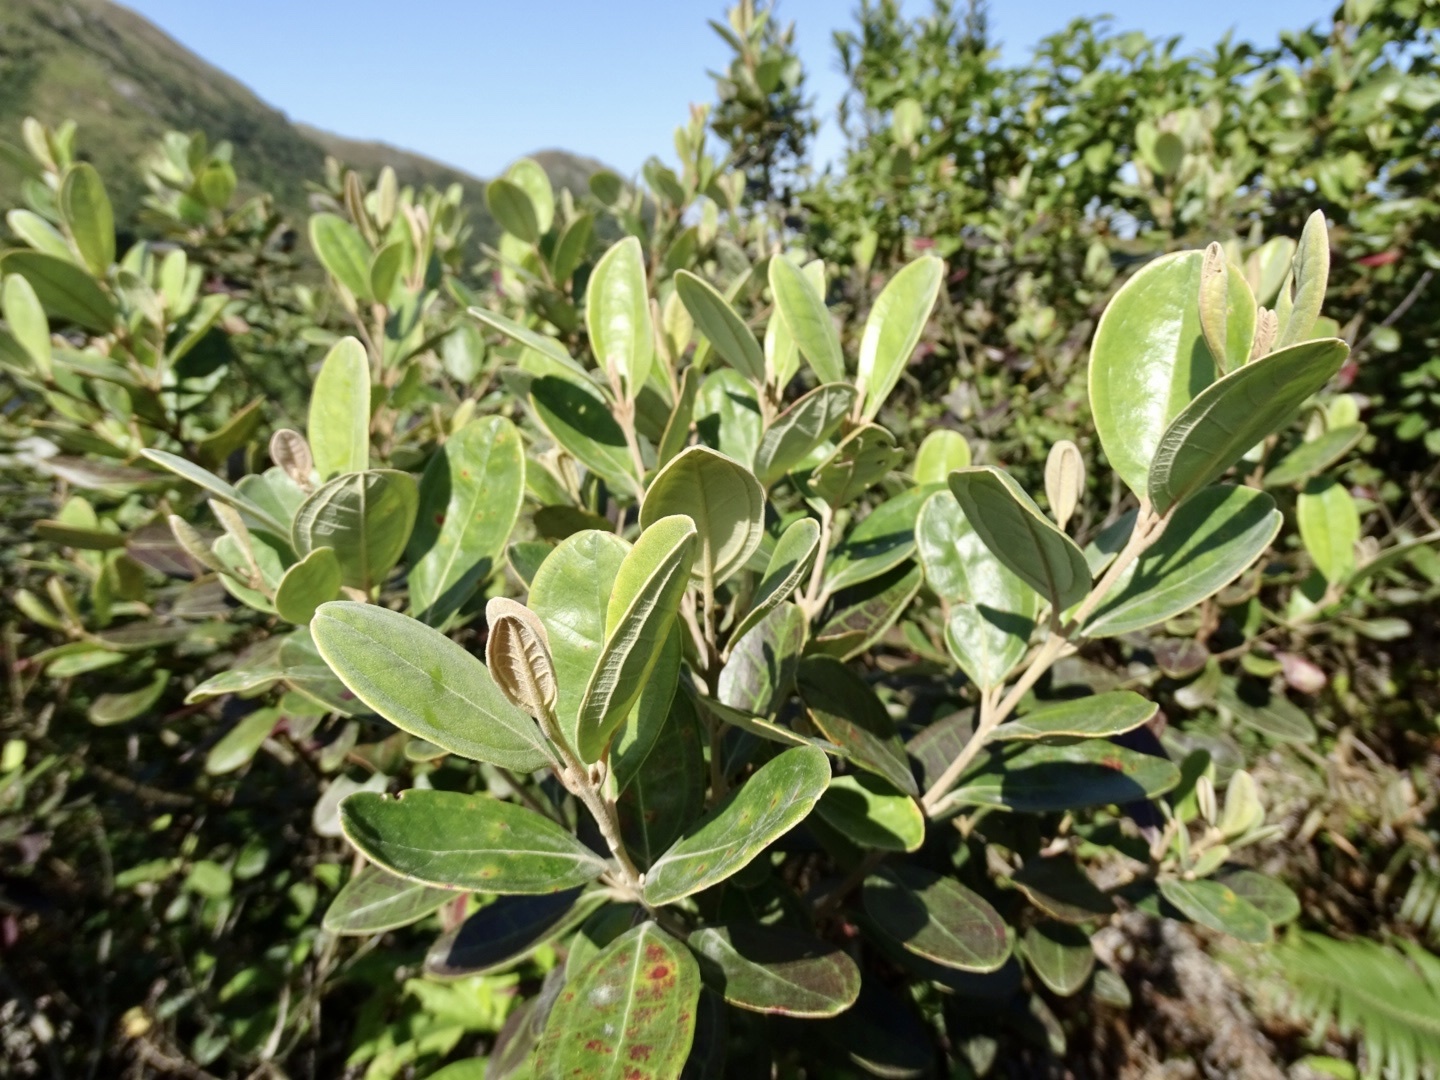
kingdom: Plantae
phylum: Tracheophyta
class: Magnoliopsida
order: Myrtales
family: Myrtaceae
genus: Rhodomyrtus
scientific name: Rhodomyrtus tomentosa
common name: Rose myrtle
